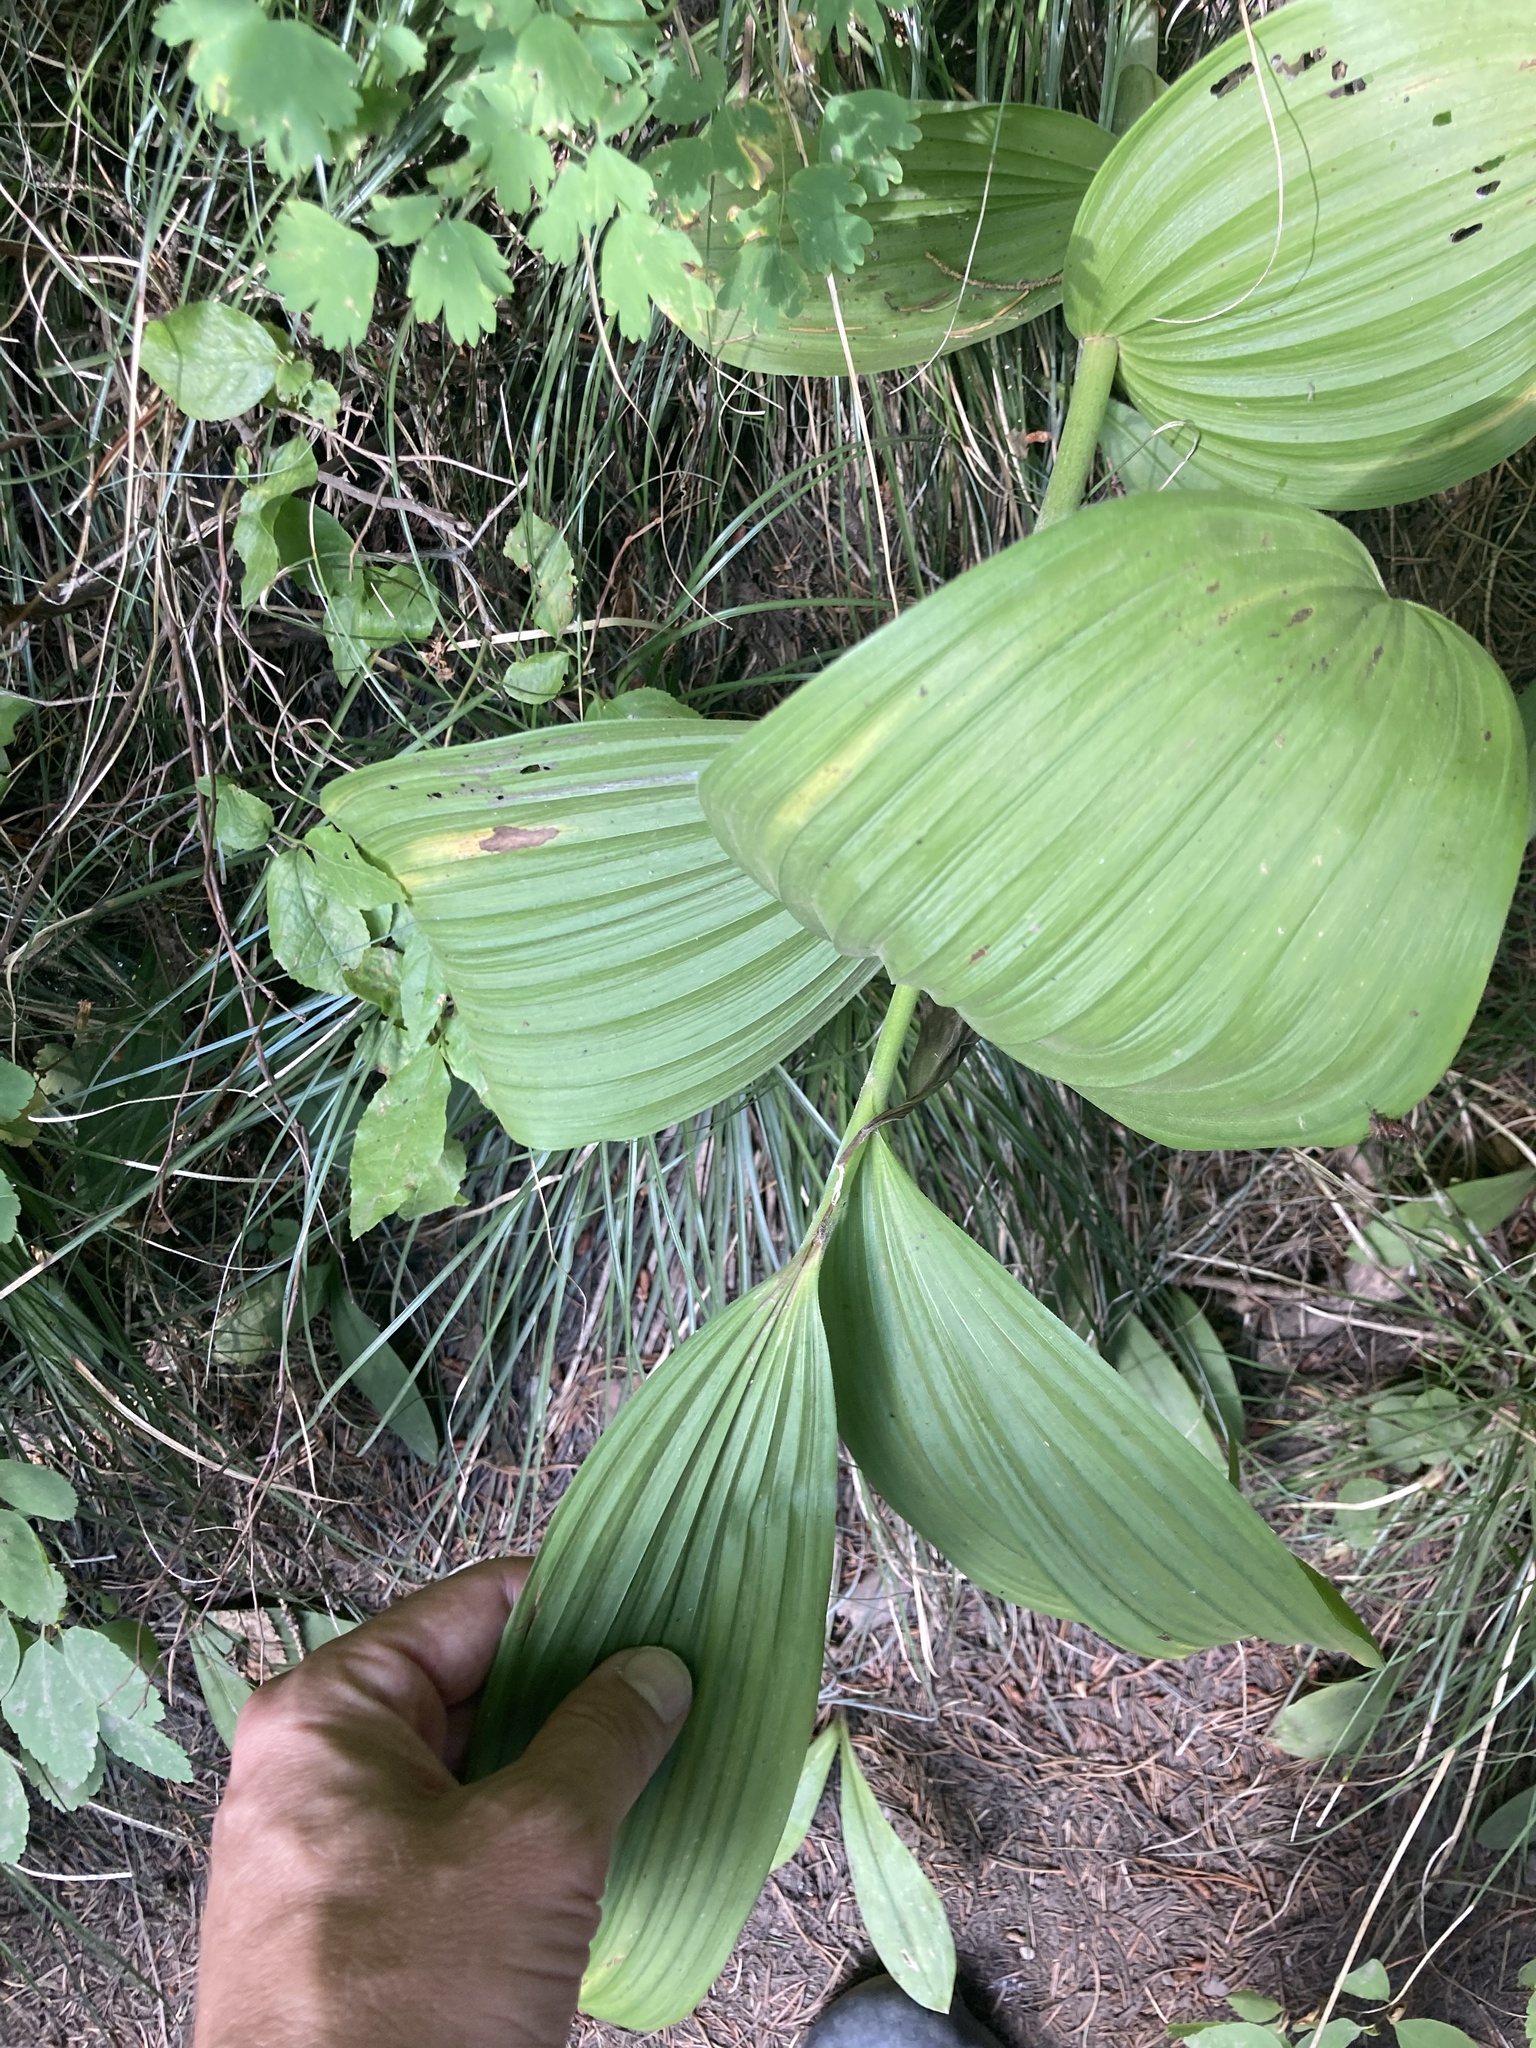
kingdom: Plantae
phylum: Tracheophyta
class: Liliopsida
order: Liliales
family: Melanthiaceae
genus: Veratrum
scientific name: Veratrum viride
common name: American false hellebore
